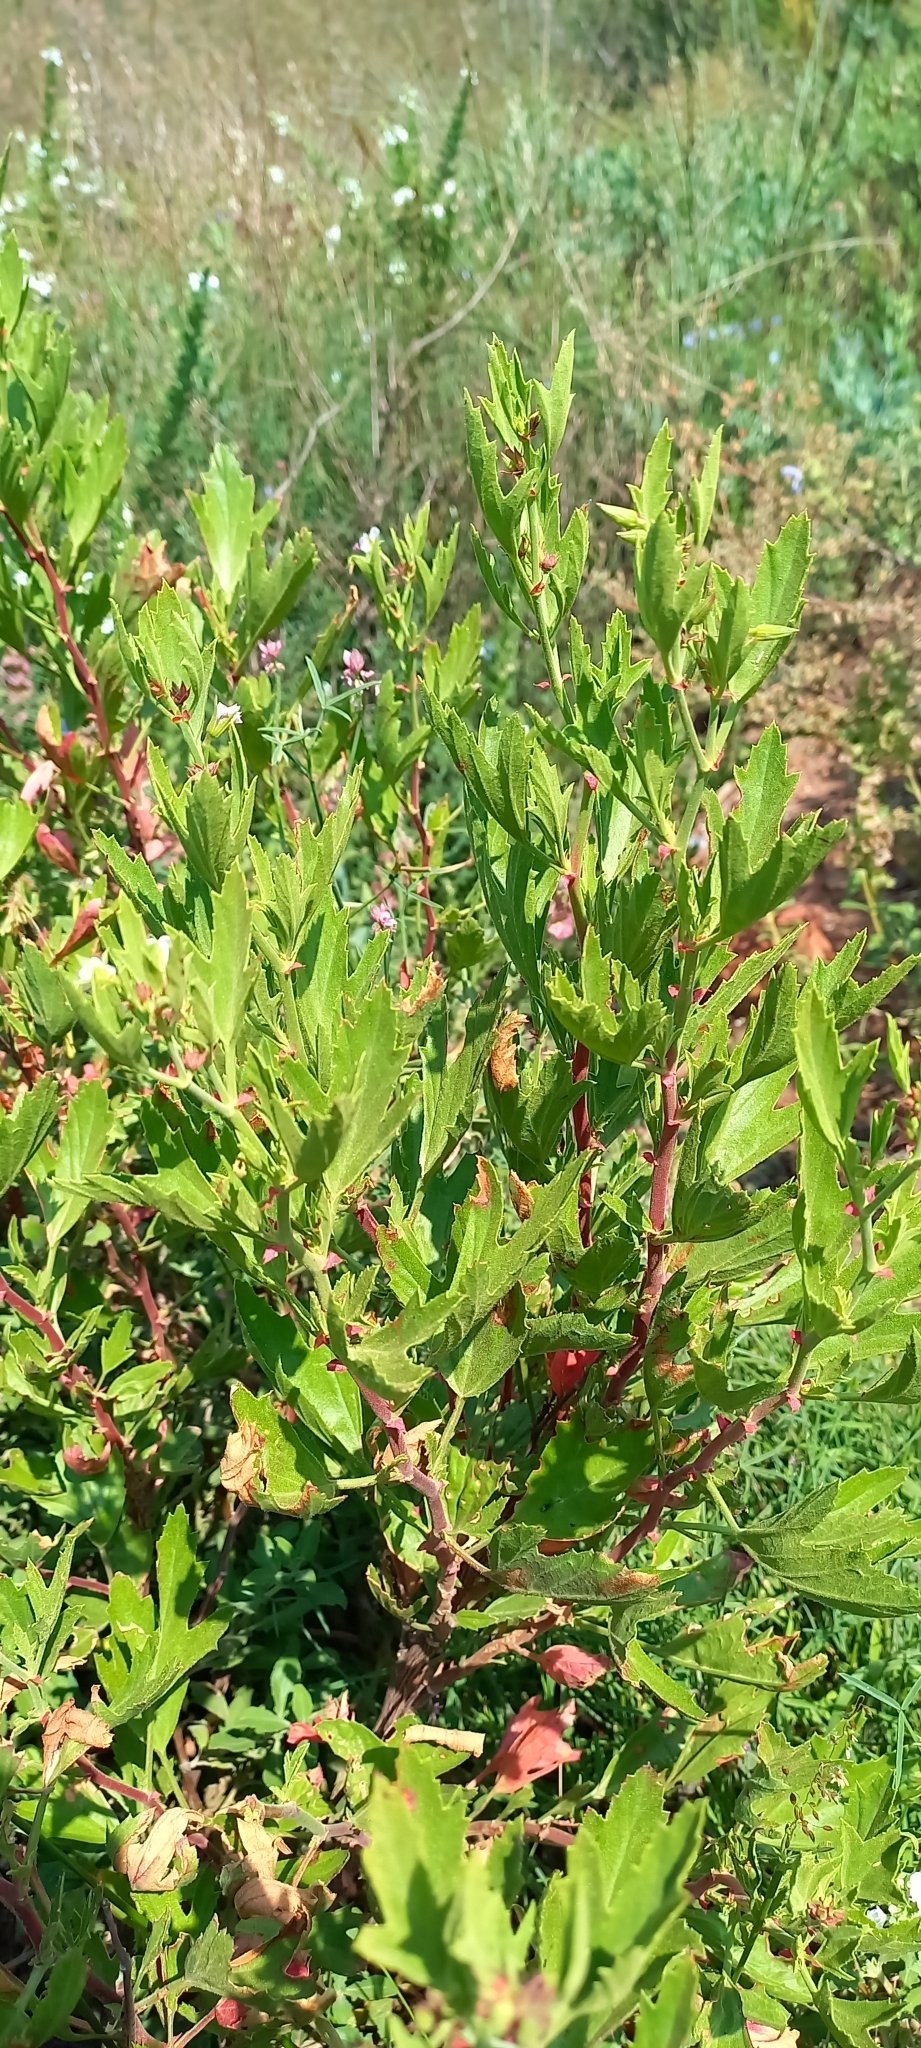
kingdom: Plantae
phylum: Tracheophyta
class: Magnoliopsida
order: Geraniales
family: Geraniaceae
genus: Pelargonium
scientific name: Pelargonium scabrum
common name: Apricot geranium
